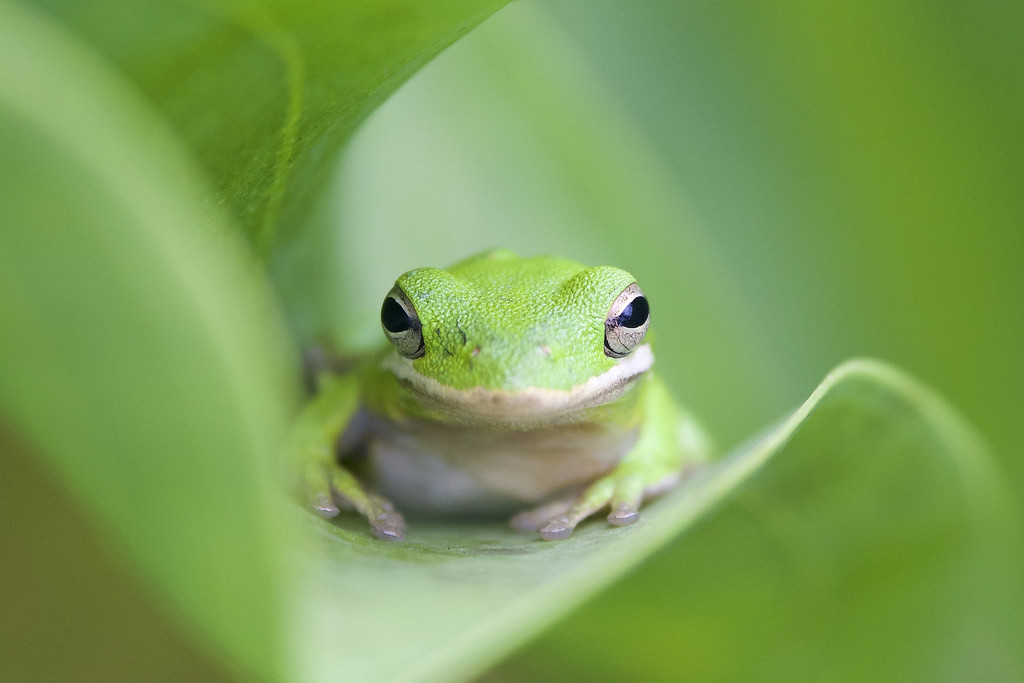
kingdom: Animalia
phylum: Chordata
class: Amphibia
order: Anura
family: Hylidae
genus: Dryophytes
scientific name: Dryophytes cinereus
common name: Green treefrog
